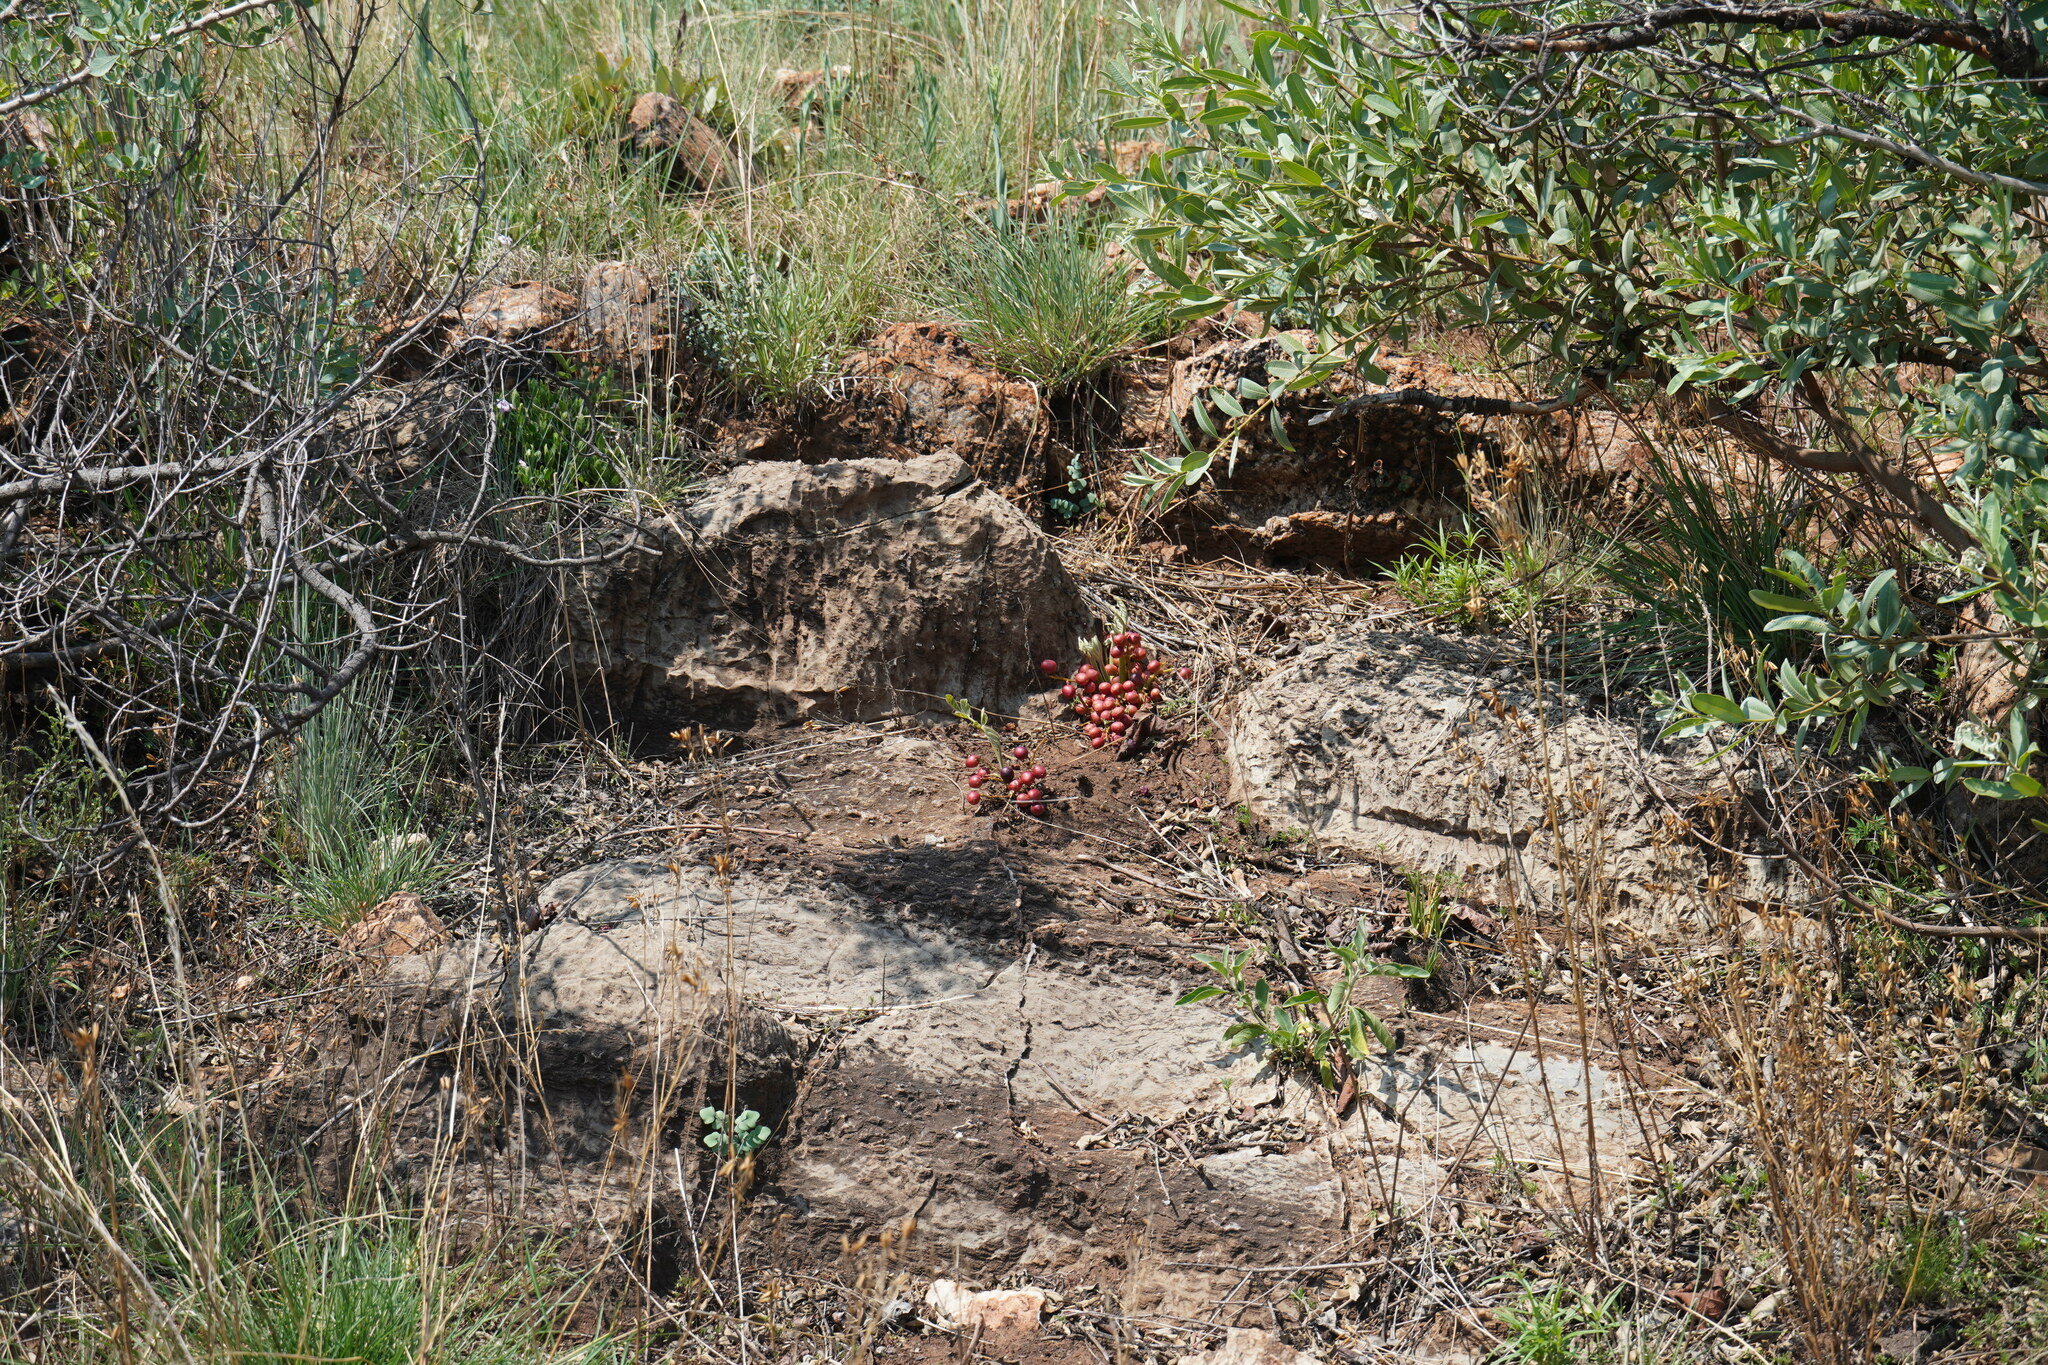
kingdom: Plantae
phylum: Tracheophyta
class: Magnoliopsida
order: Sapindales
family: Anacardiaceae
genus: Lannea
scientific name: Lannea edulis
